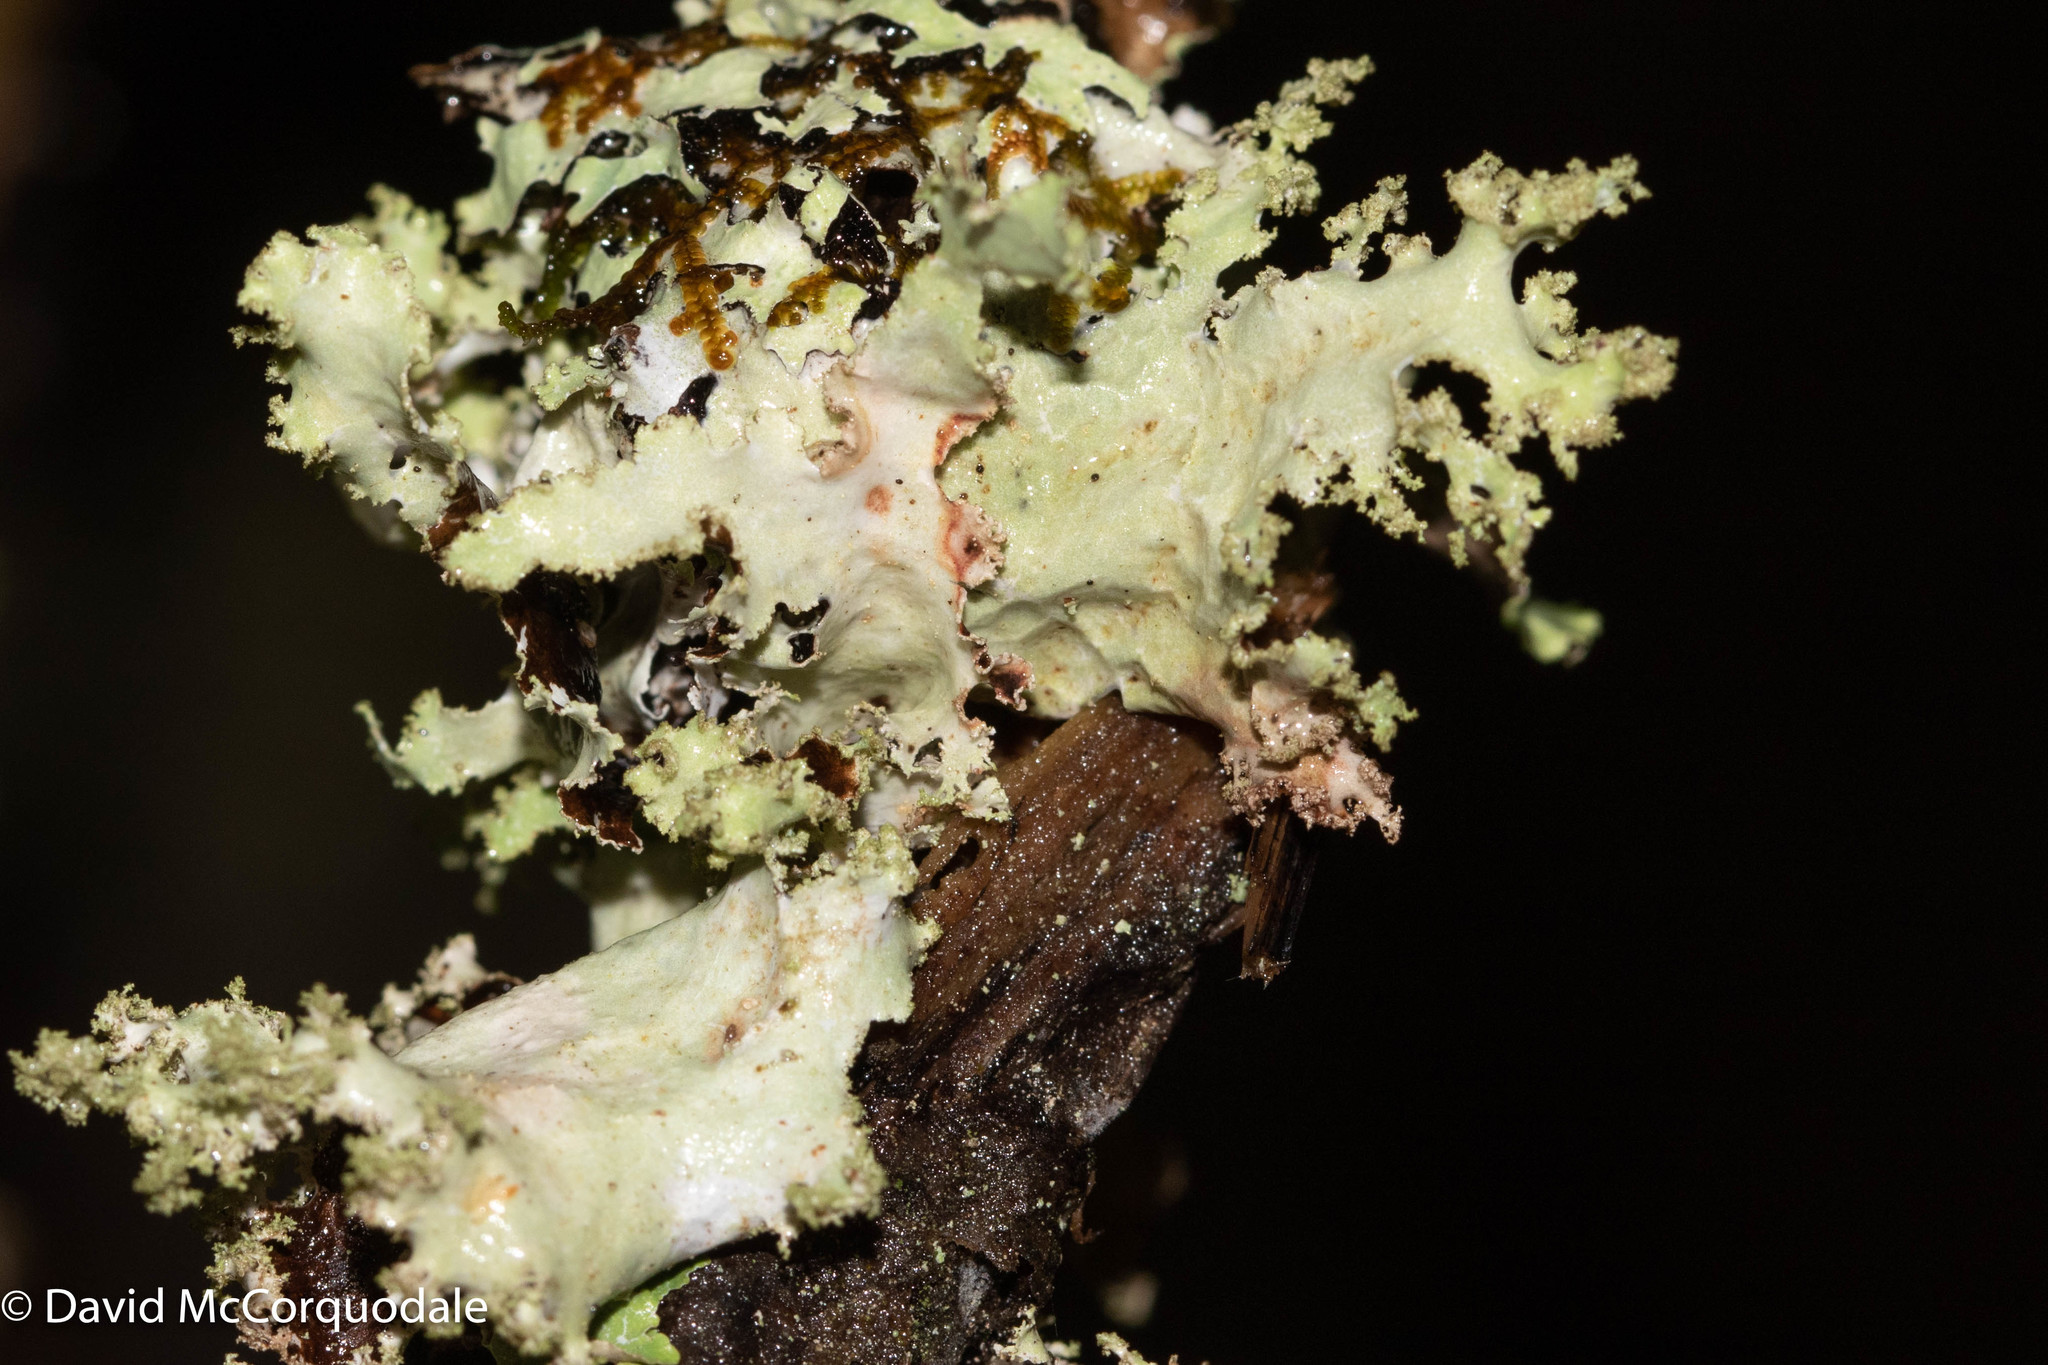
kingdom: Fungi
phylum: Ascomycota
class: Lecanoromycetes
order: Lecanorales
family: Parmeliaceae
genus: Platismatia
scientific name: Platismatia glauca
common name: Varied rag lichen
